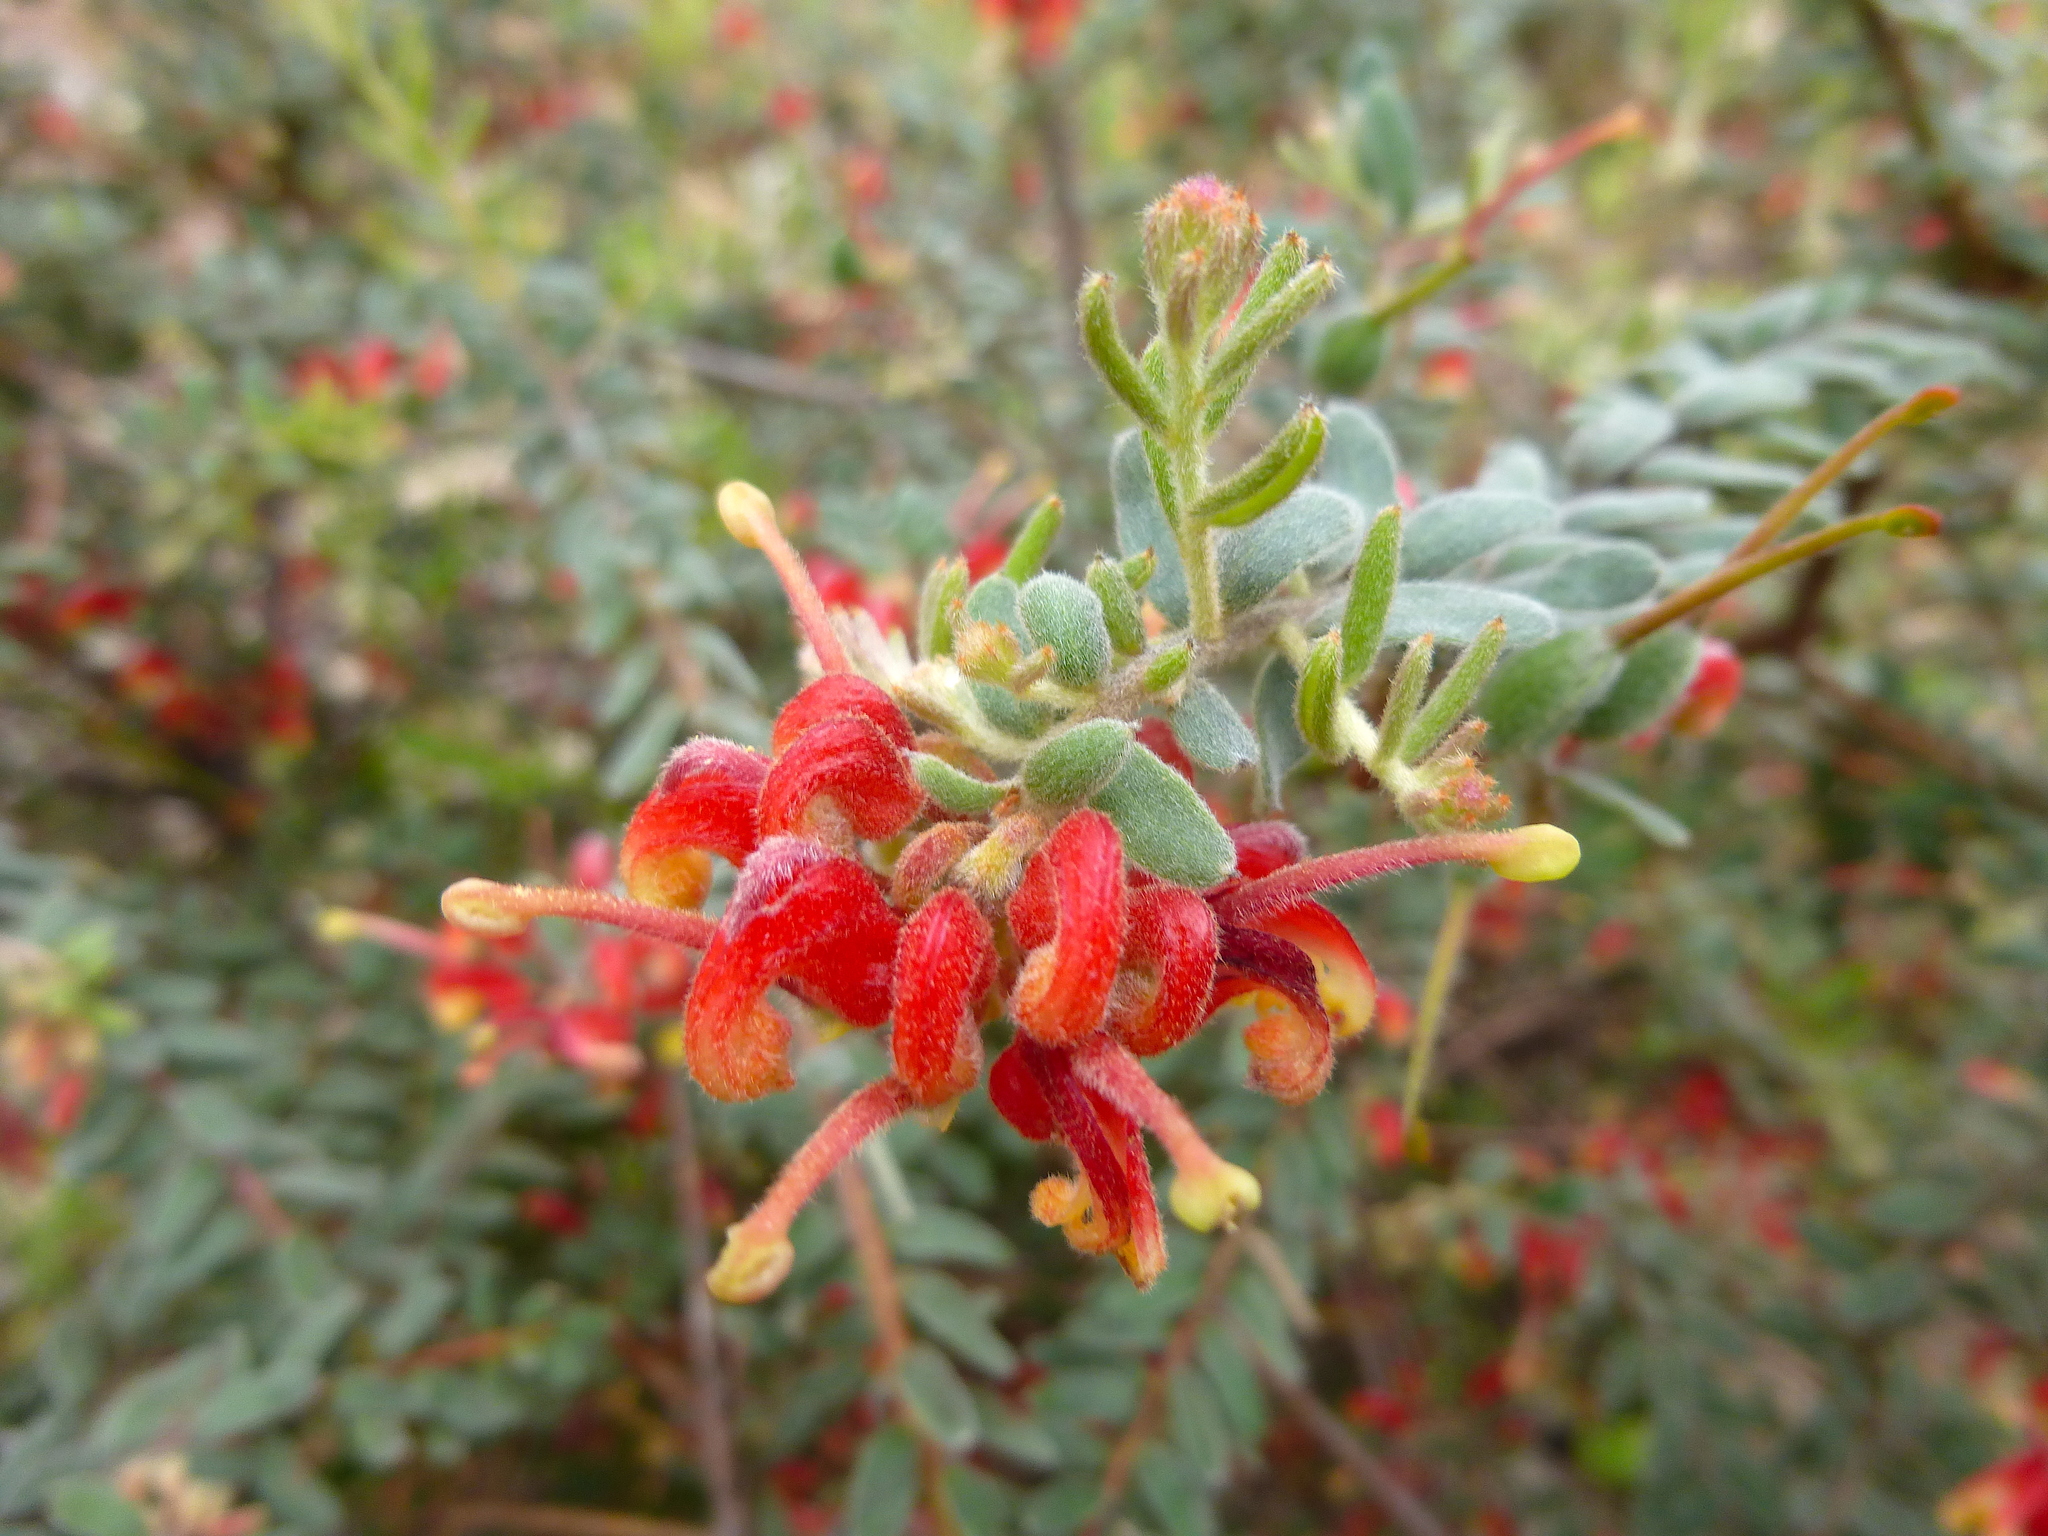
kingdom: Plantae
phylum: Tracheophyta
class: Magnoliopsida
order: Proteales
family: Proteaceae
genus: Grevillea
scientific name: Grevillea alpina
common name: Catclaws grevillea
